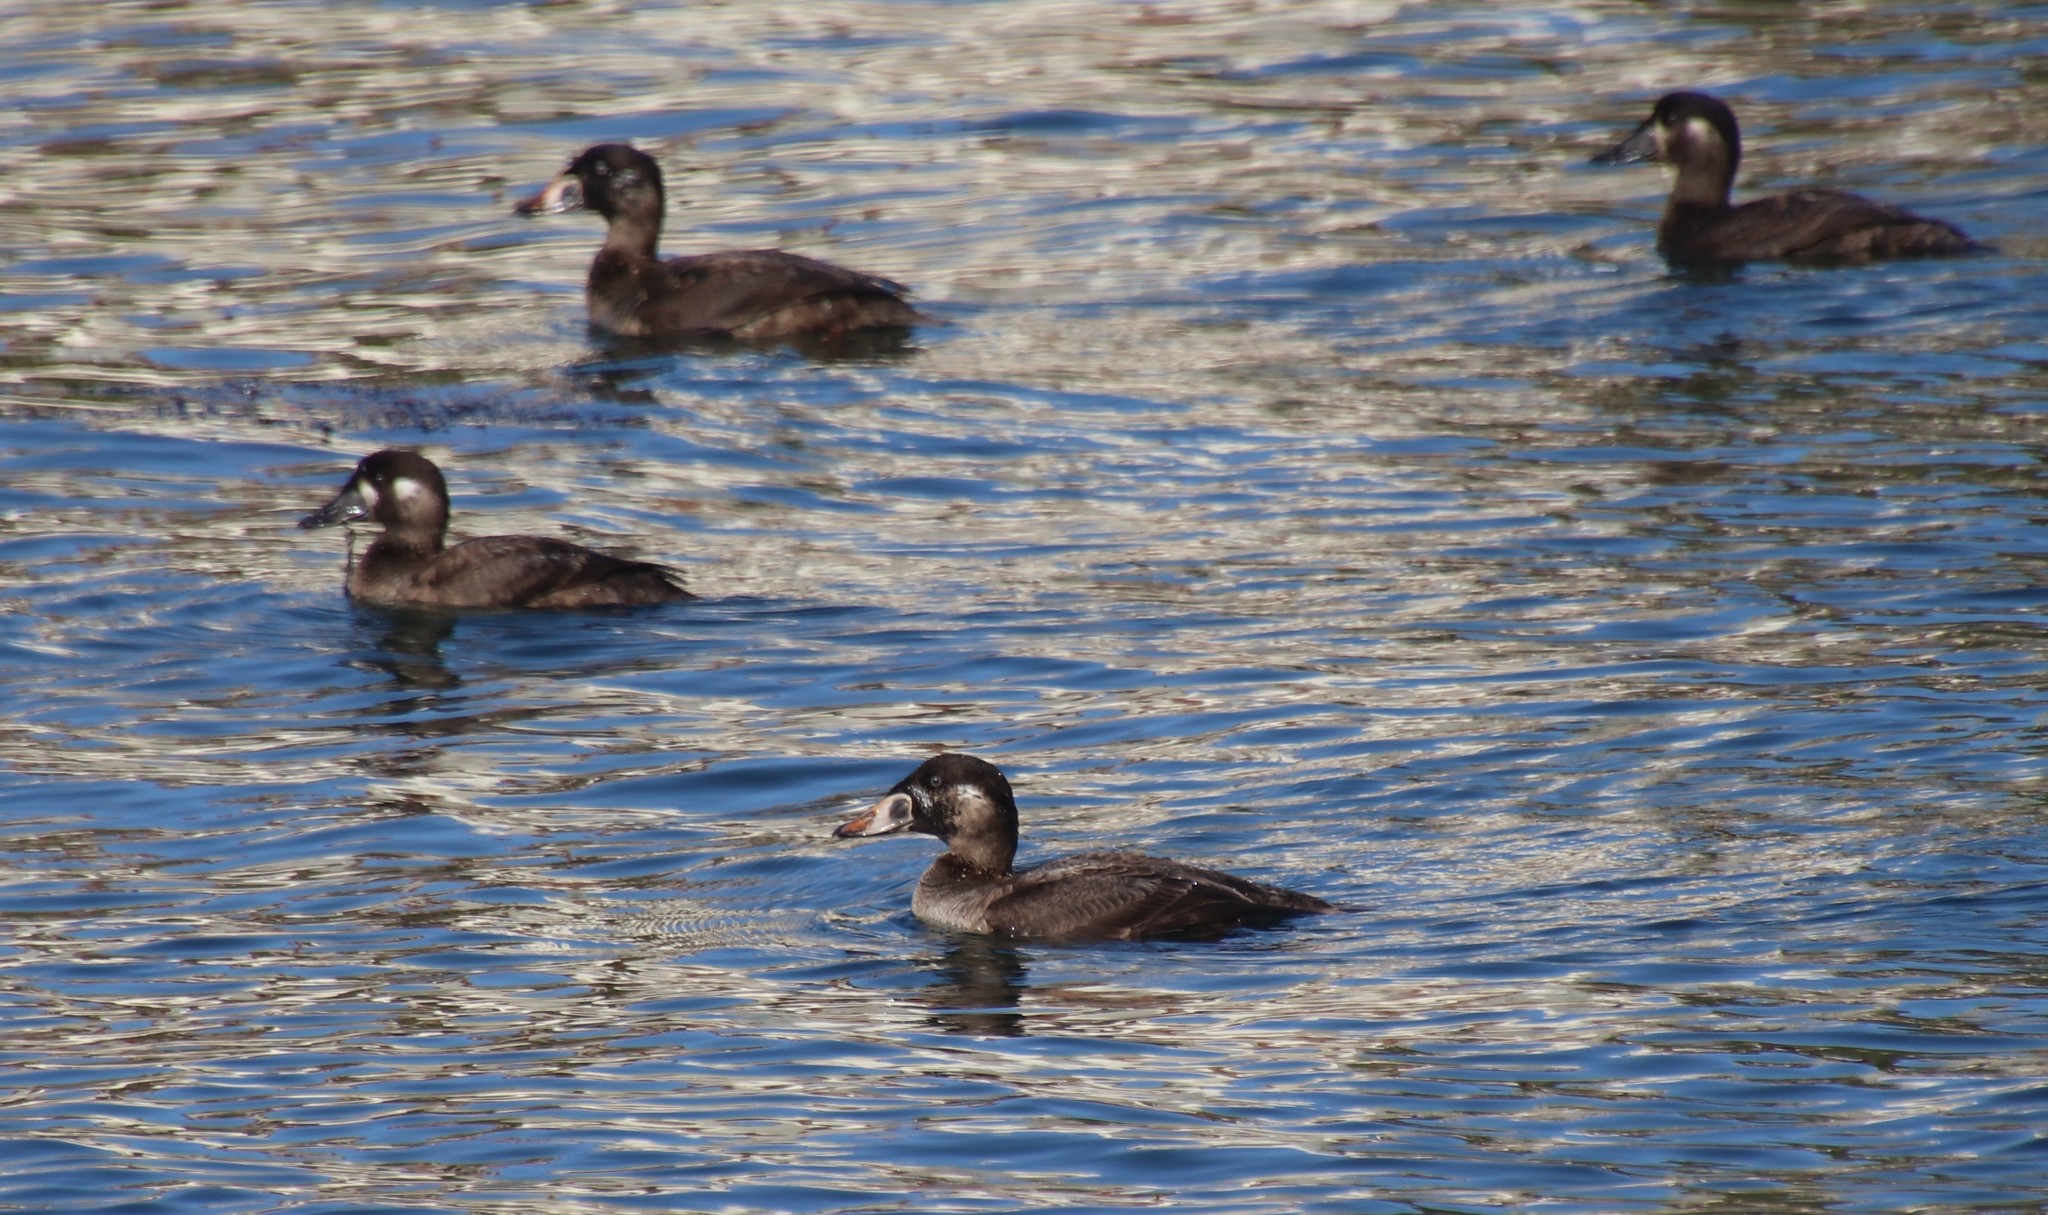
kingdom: Animalia
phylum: Chordata
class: Aves
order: Anseriformes
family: Anatidae
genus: Melanitta
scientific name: Melanitta perspicillata
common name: Surf scoter
